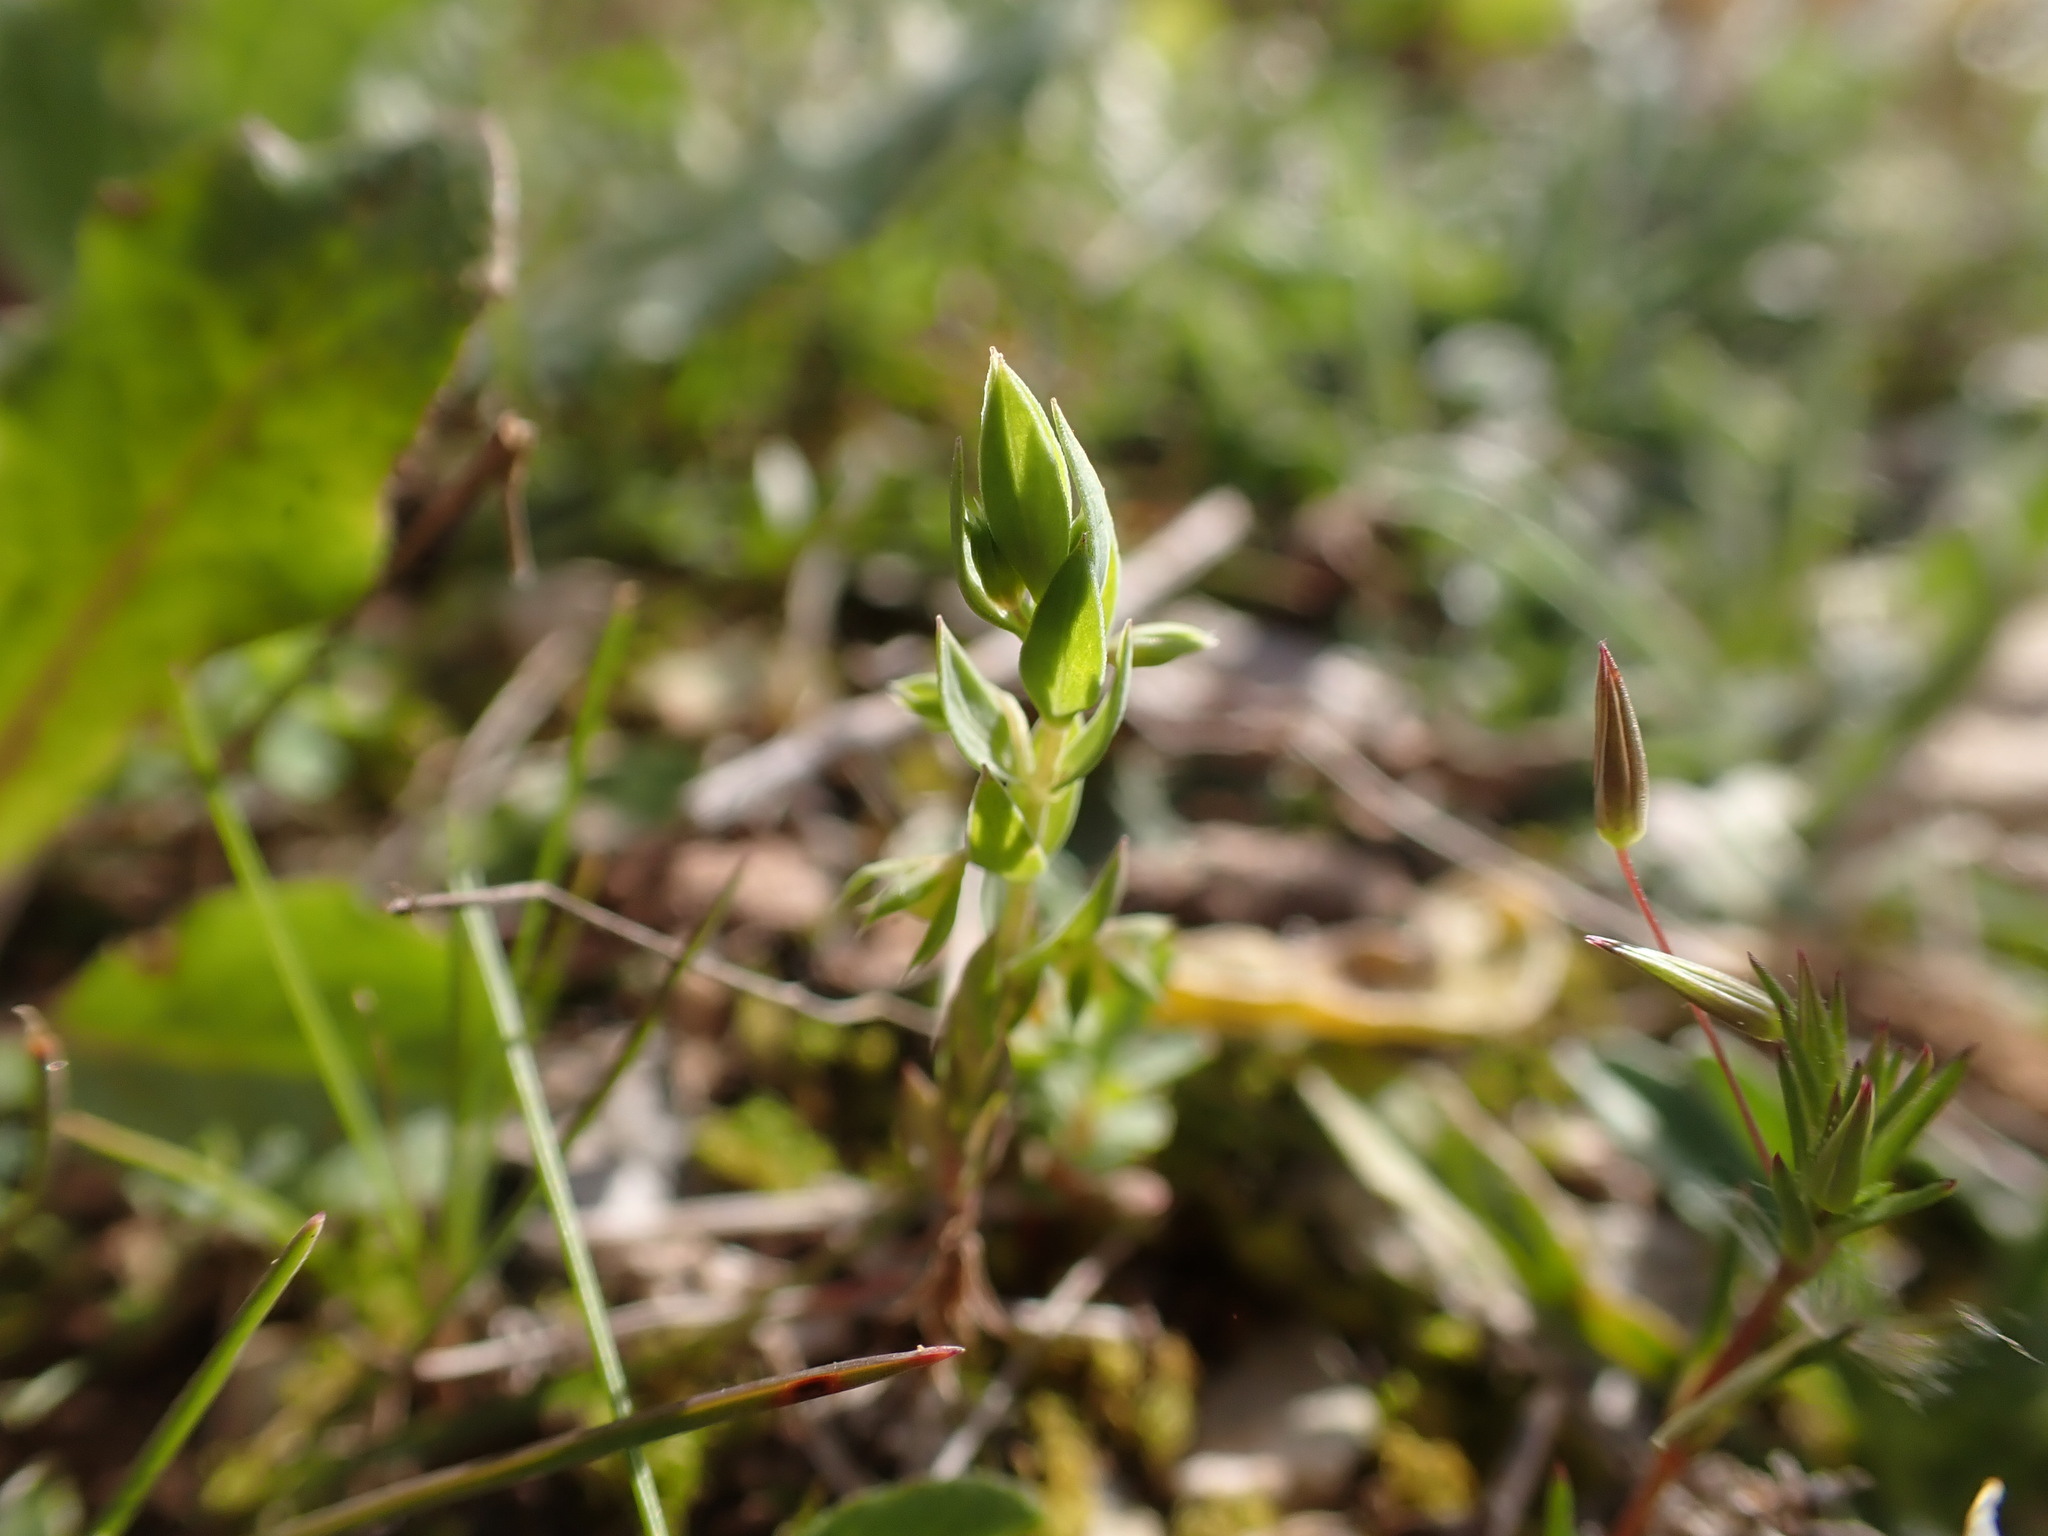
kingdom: Plantae
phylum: Tracheophyta
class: Magnoliopsida
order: Ericales
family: Primulaceae
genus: Lysimachia
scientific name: Lysimachia linum-stellatum
